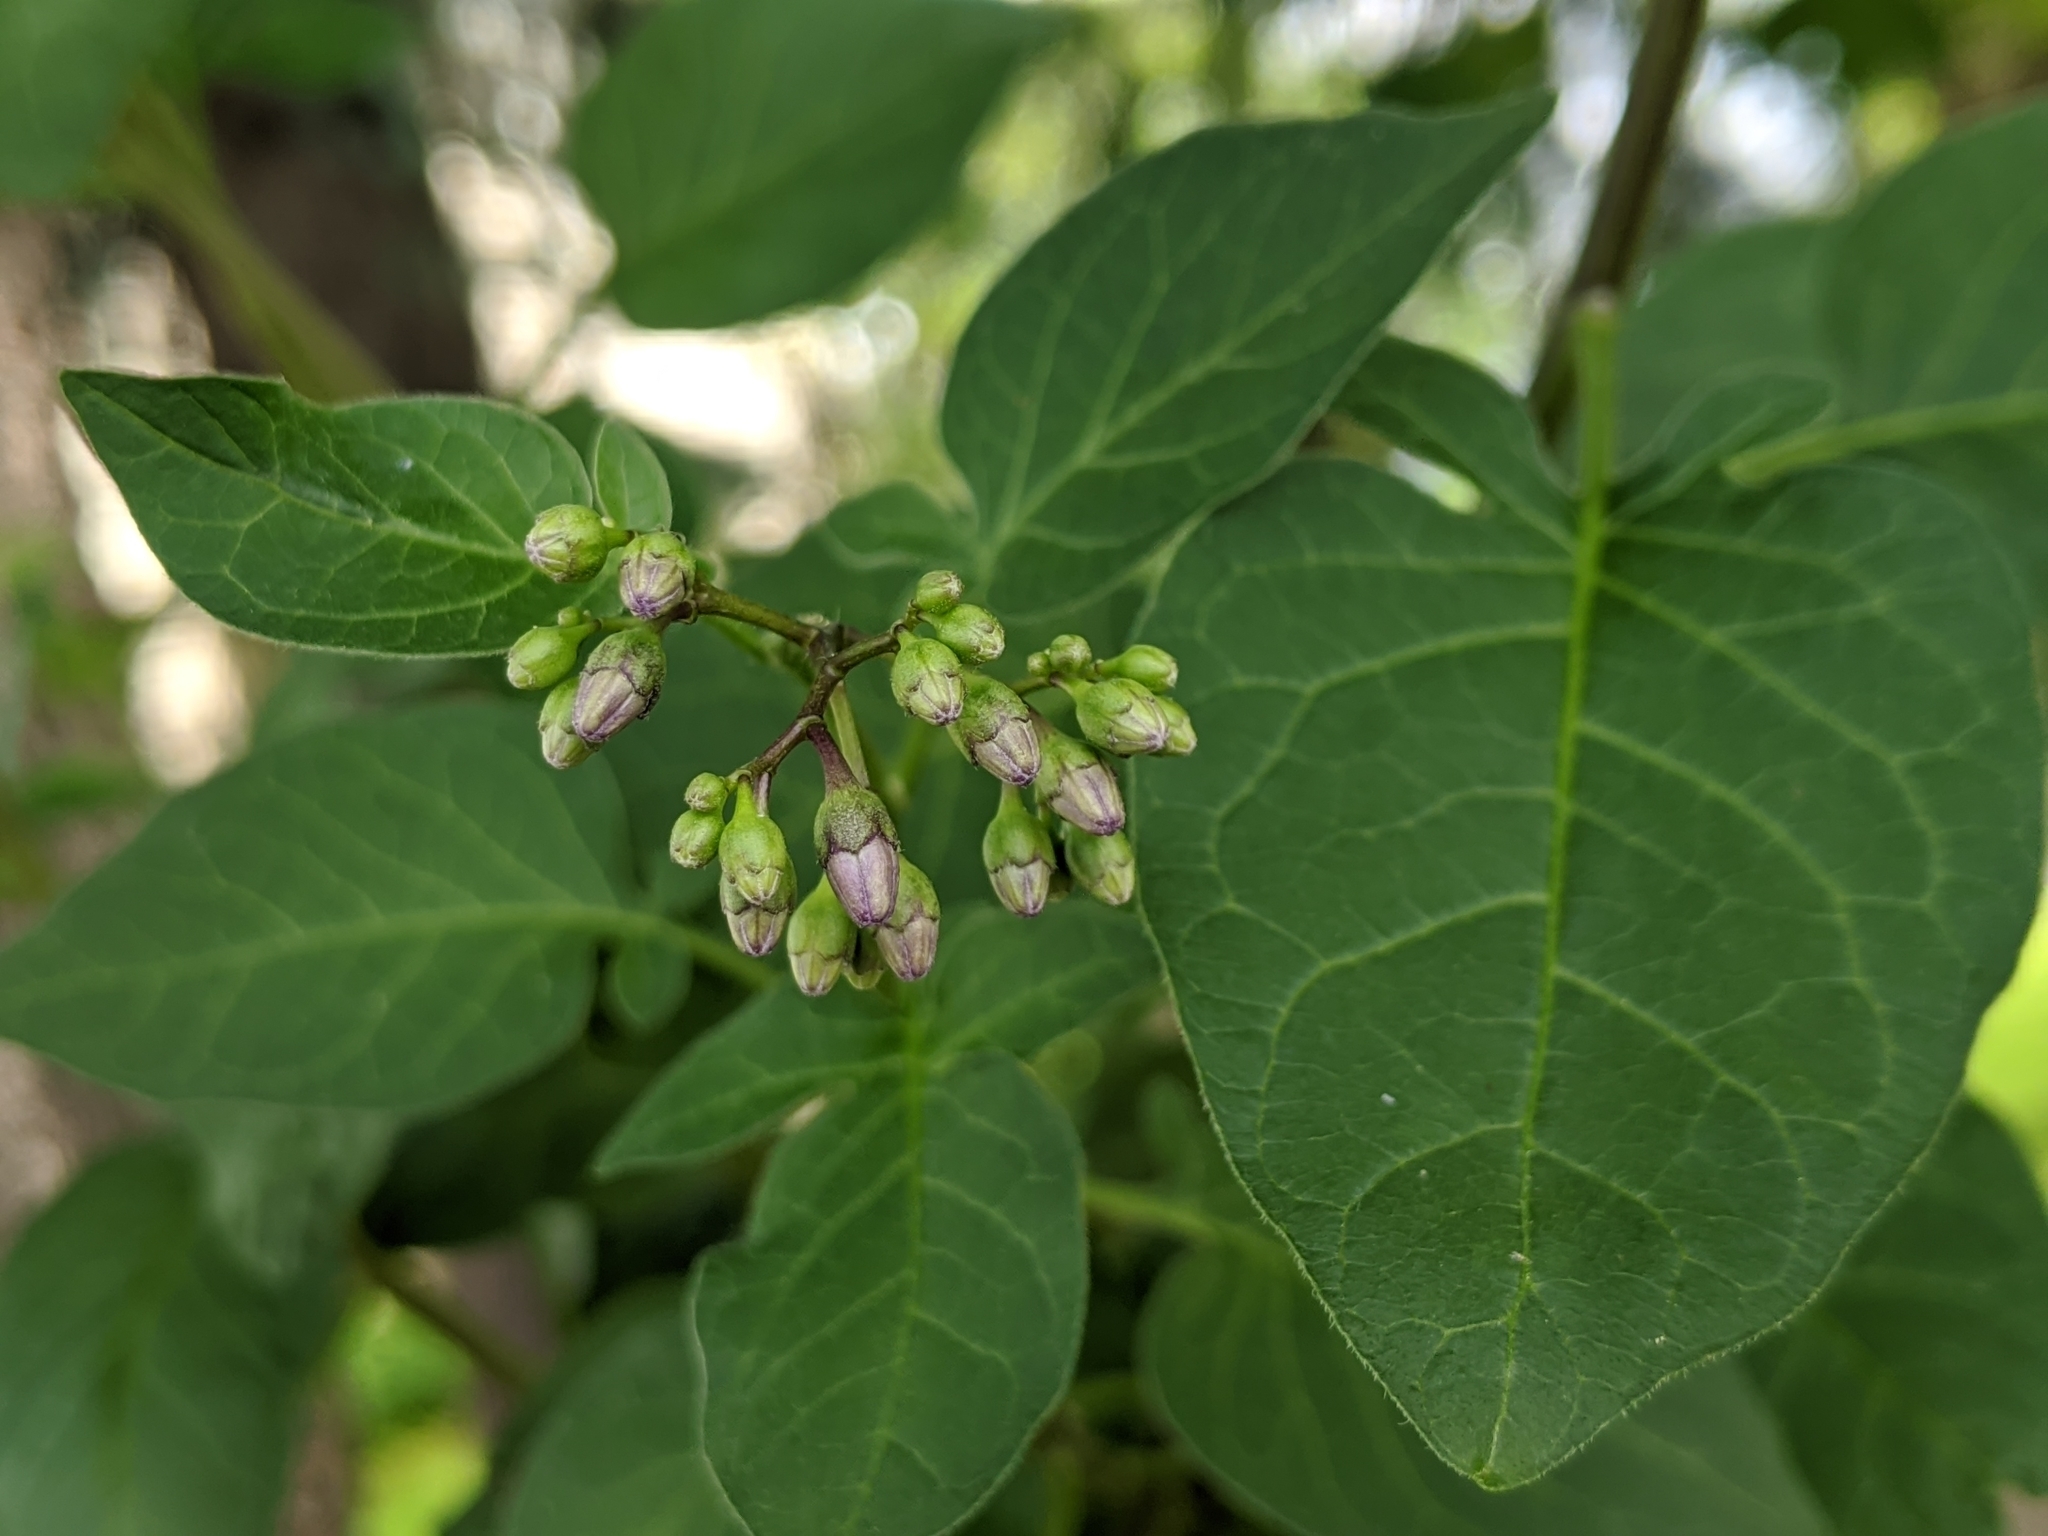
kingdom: Plantae
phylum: Tracheophyta
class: Magnoliopsida
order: Solanales
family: Solanaceae
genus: Solanum
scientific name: Solanum dulcamara
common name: Climbing nightshade
